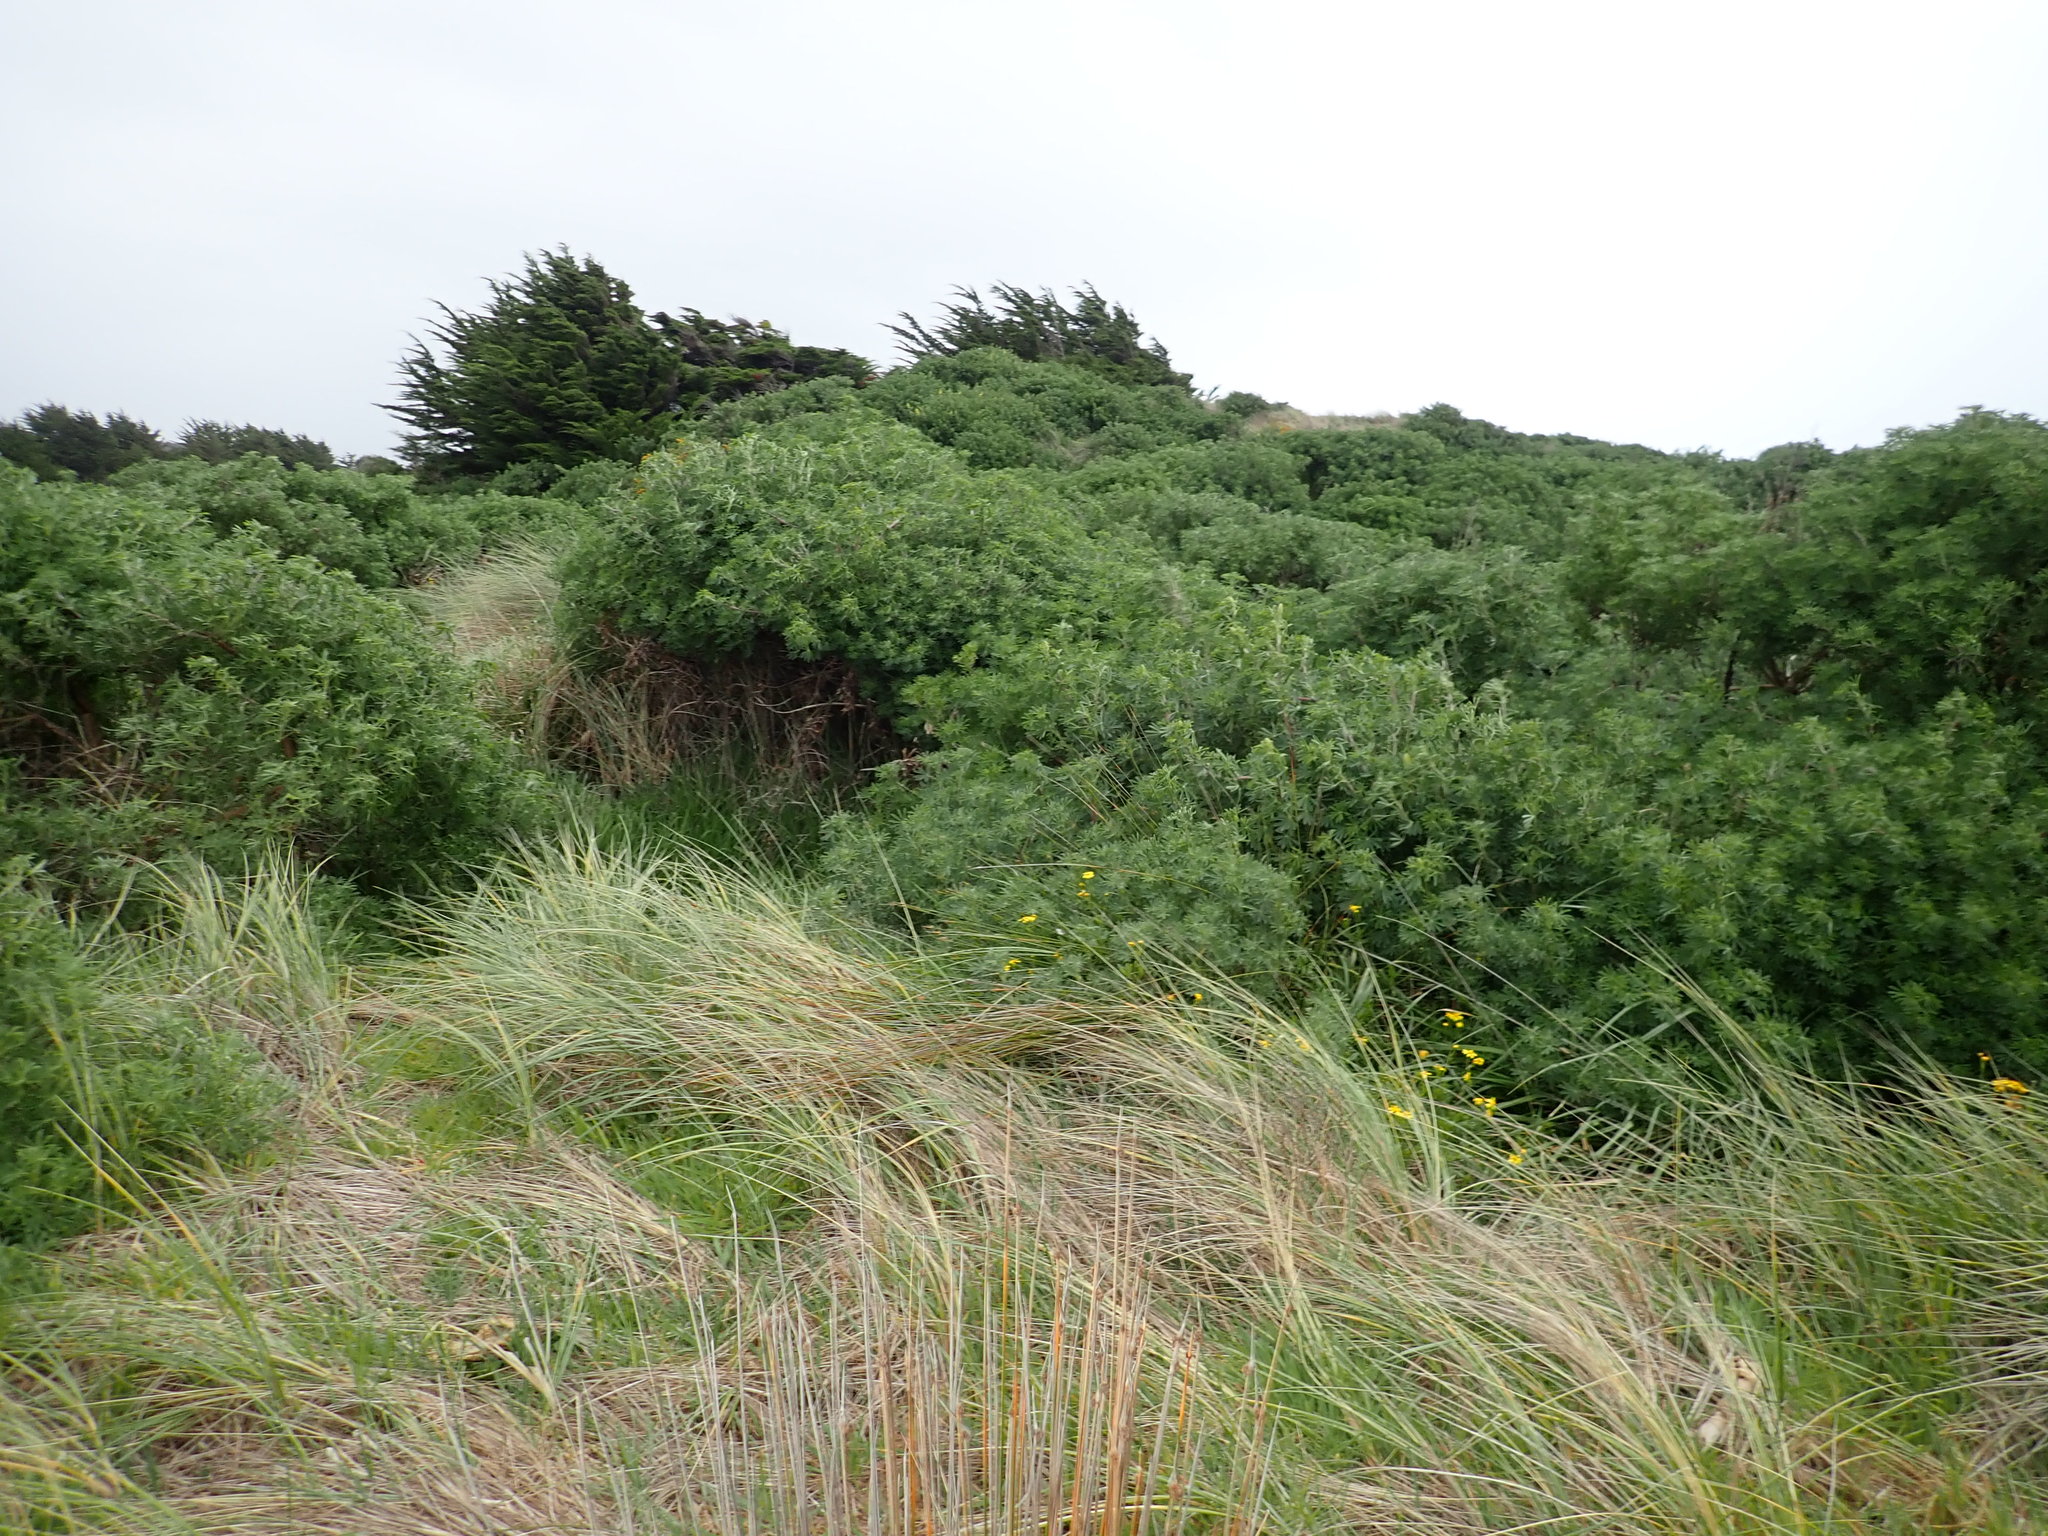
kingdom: Plantae
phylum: Tracheophyta
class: Magnoliopsida
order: Fabales
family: Fabaceae
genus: Lupinus
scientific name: Lupinus arboreus
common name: Yellow bush lupine
